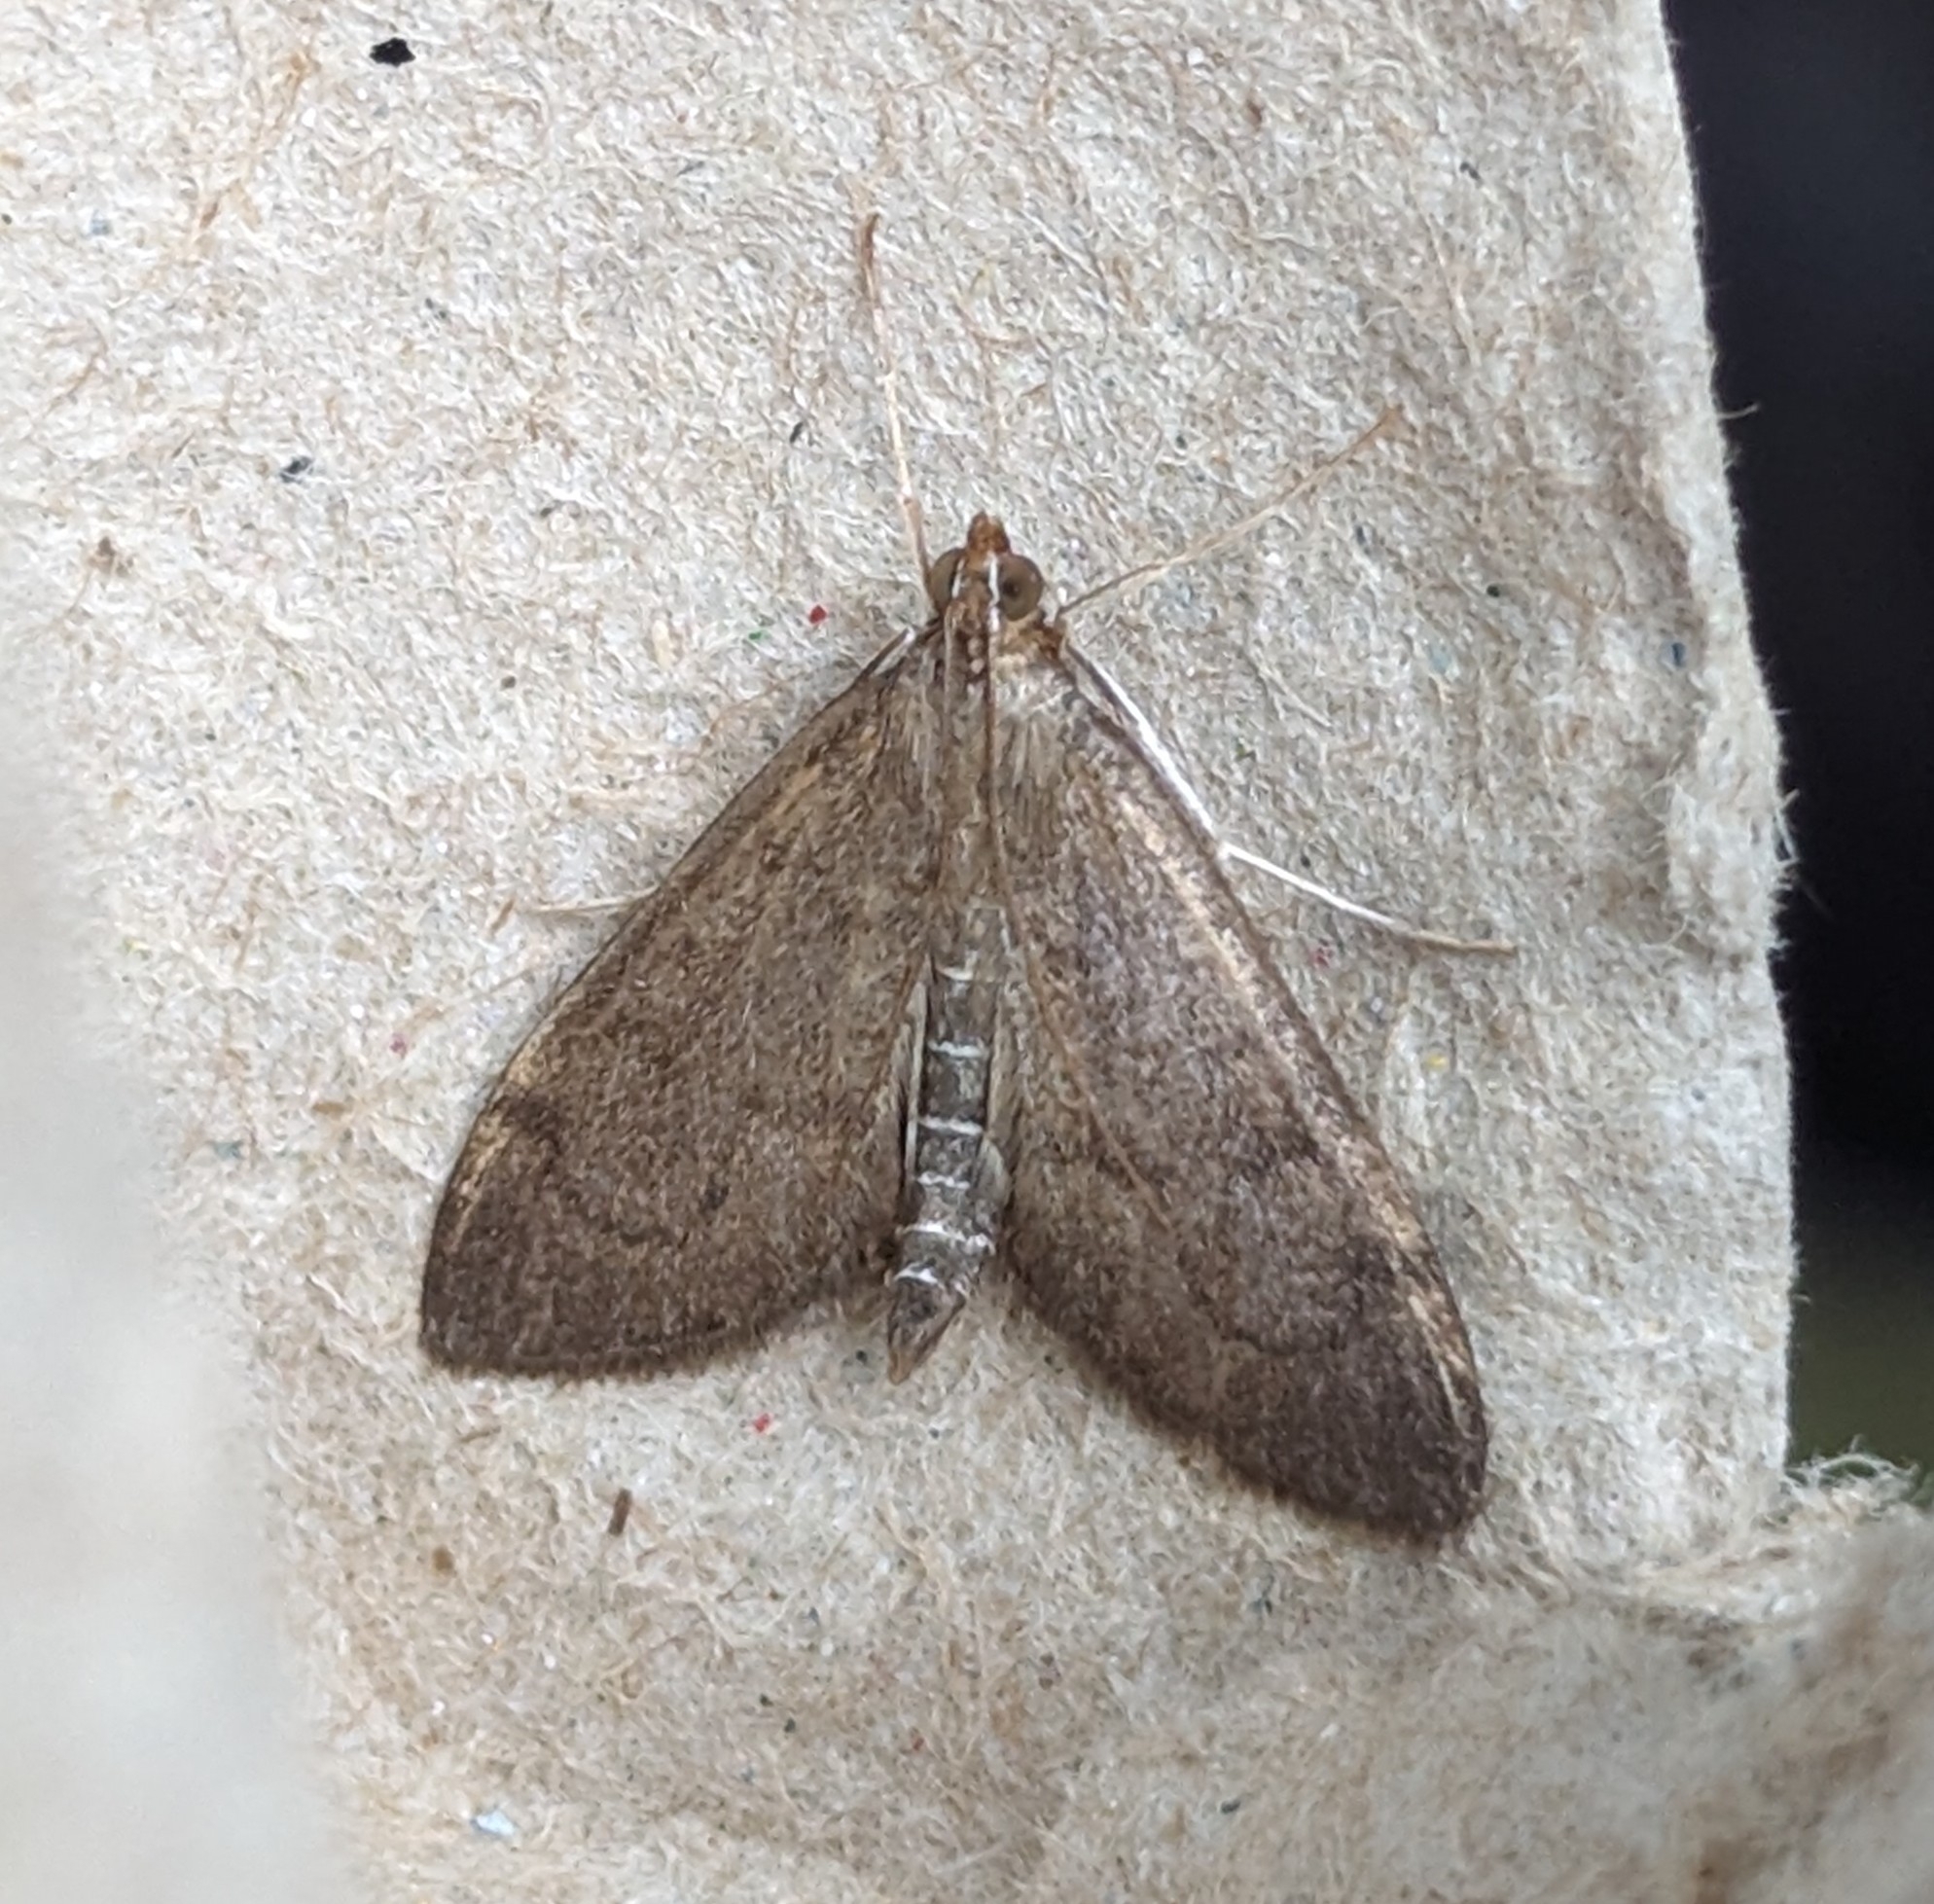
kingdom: Animalia
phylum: Arthropoda
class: Insecta
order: Lepidoptera
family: Crambidae
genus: Anania
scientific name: Anania mysippusalis
